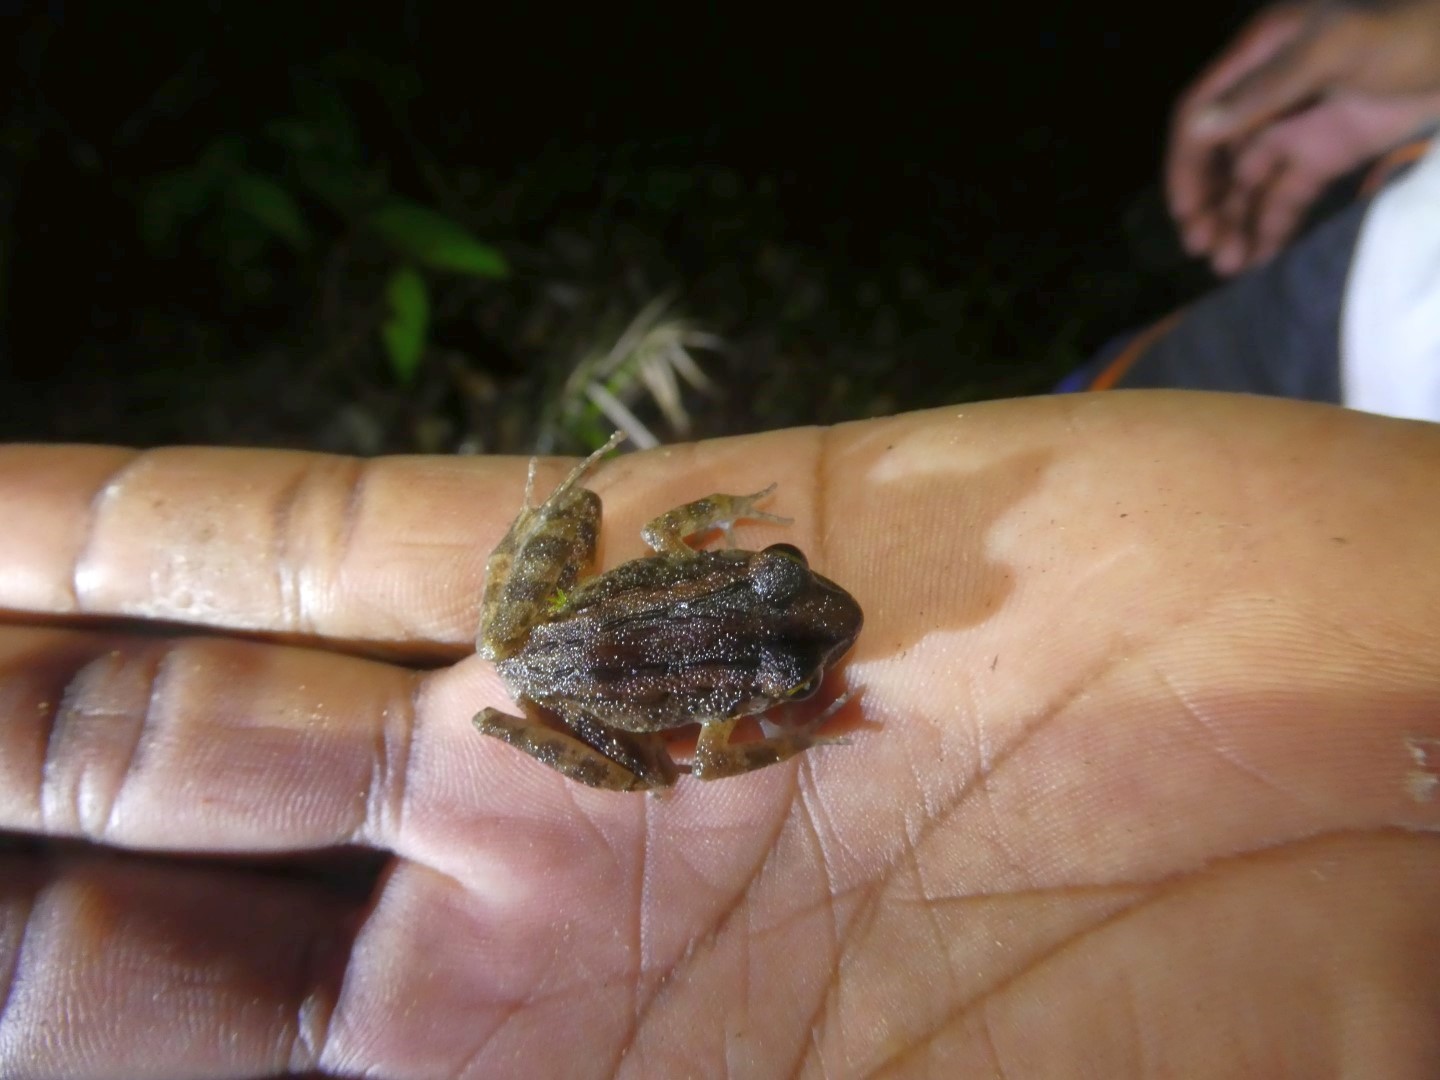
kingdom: Animalia
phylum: Chordata
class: Amphibia
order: Anura
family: Ceratobatrachidae
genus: Cornufer
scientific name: Cornufer papuensis
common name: Papua wrinkled ground frog
